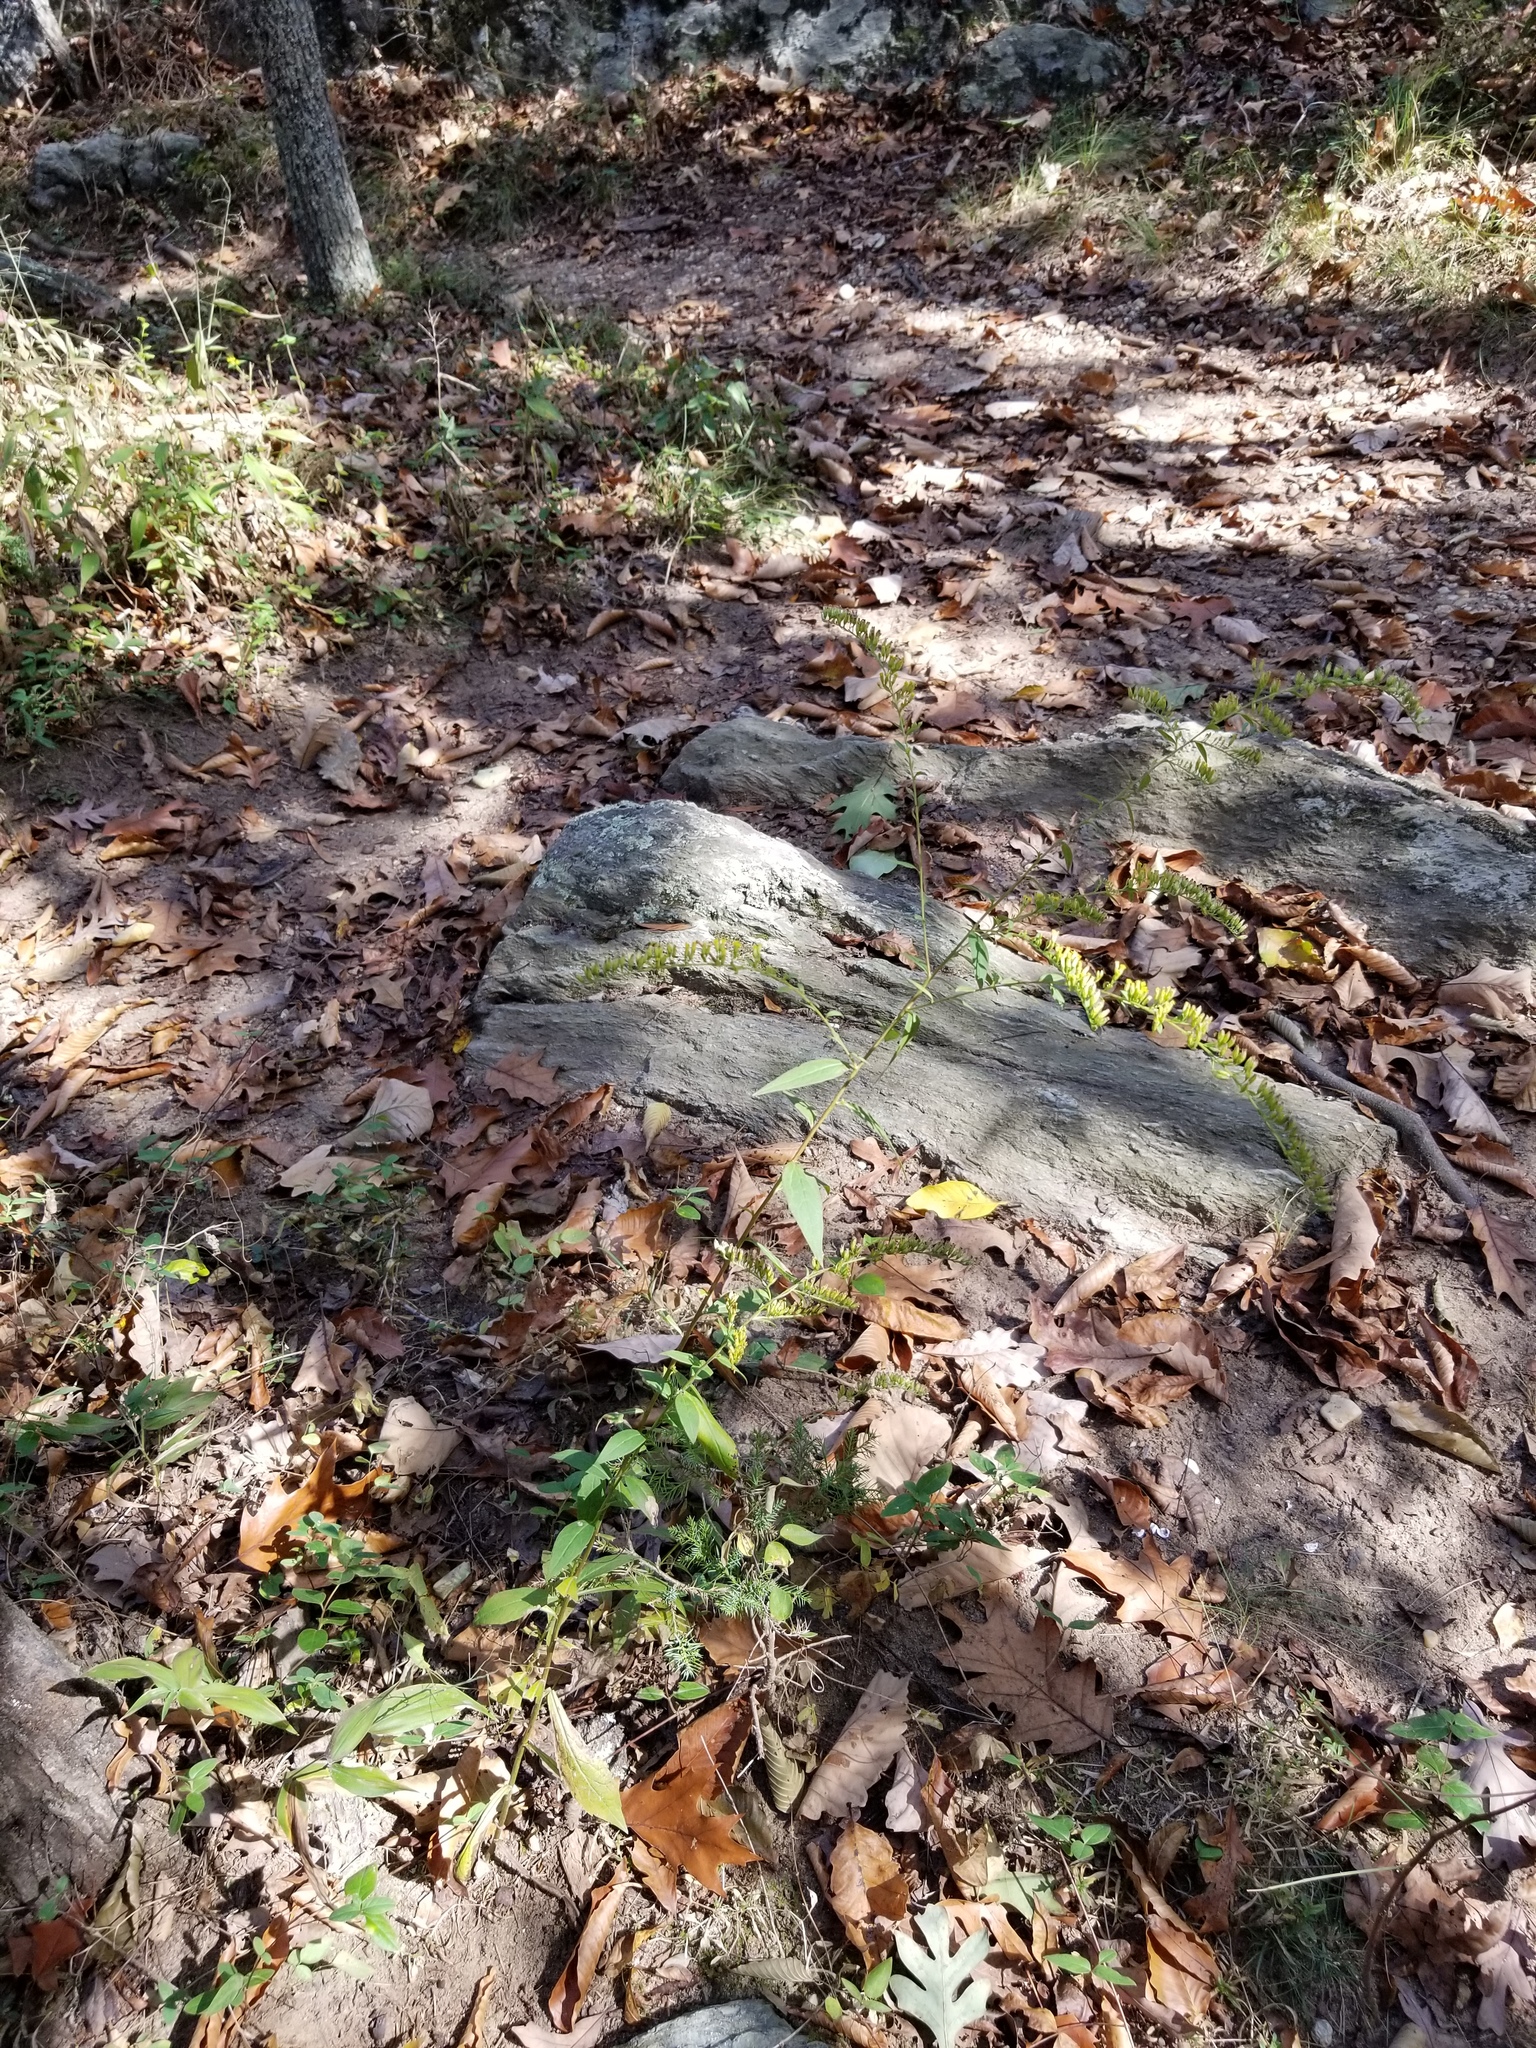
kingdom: Plantae
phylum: Tracheophyta
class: Magnoliopsida
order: Asterales
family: Asteraceae
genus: Solidago
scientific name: Solidago ulmifolia
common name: Elm-leaf goldenrod
